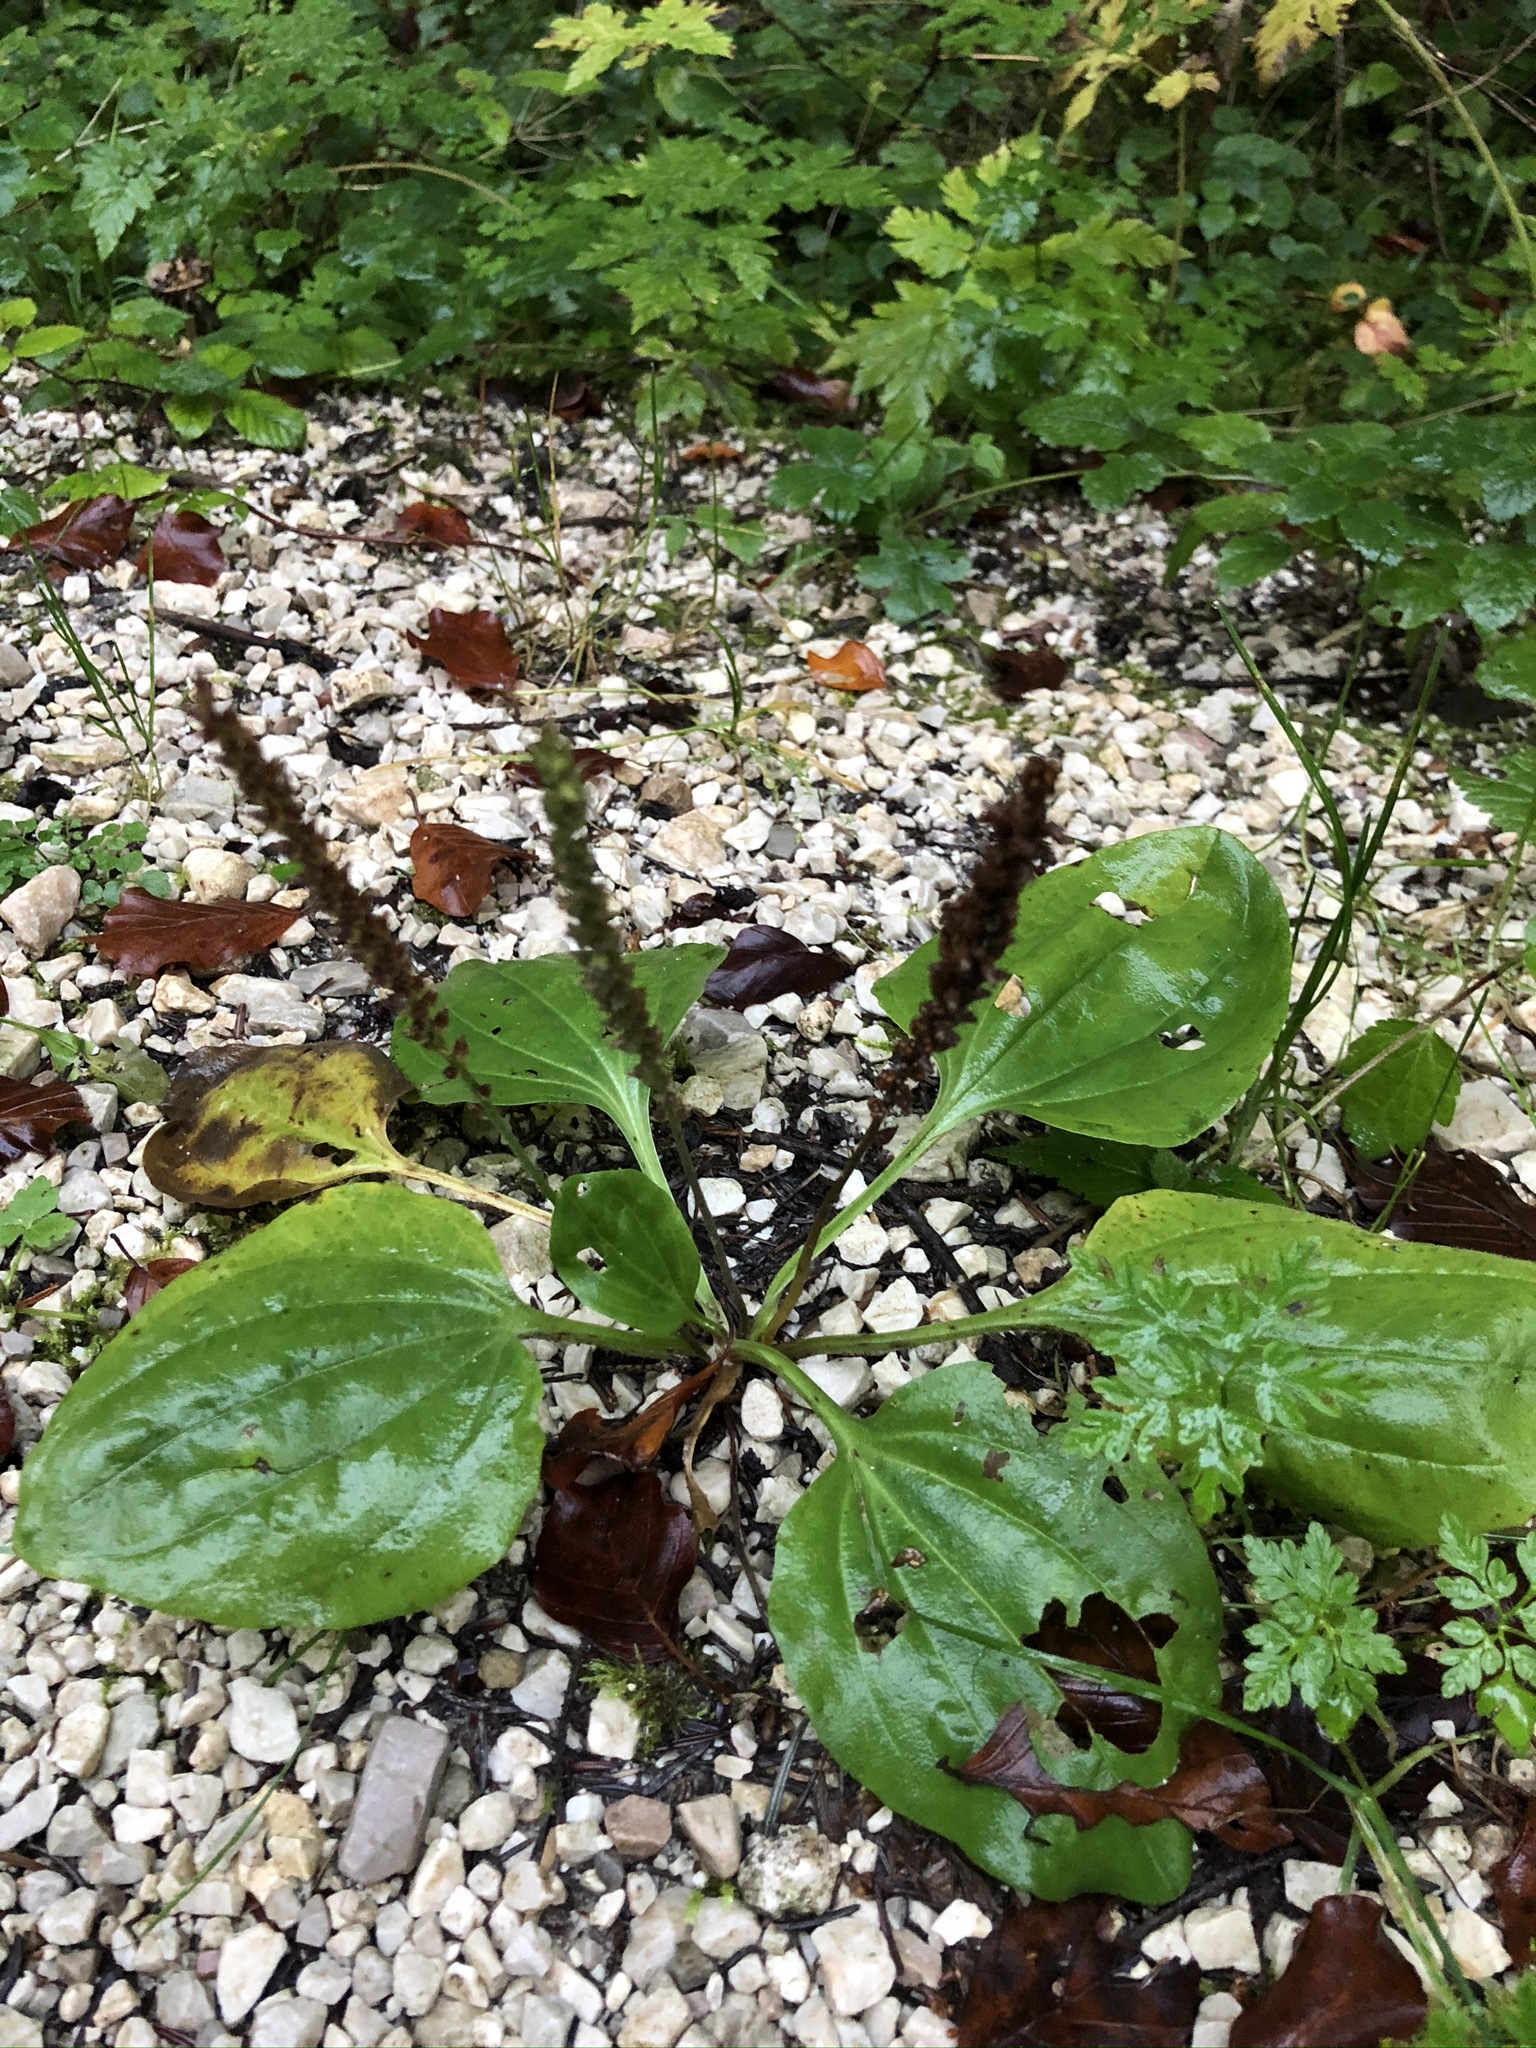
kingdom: Plantae
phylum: Tracheophyta
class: Magnoliopsida
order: Lamiales
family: Plantaginaceae
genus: Plantago
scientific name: Plantago major
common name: Common plantain
